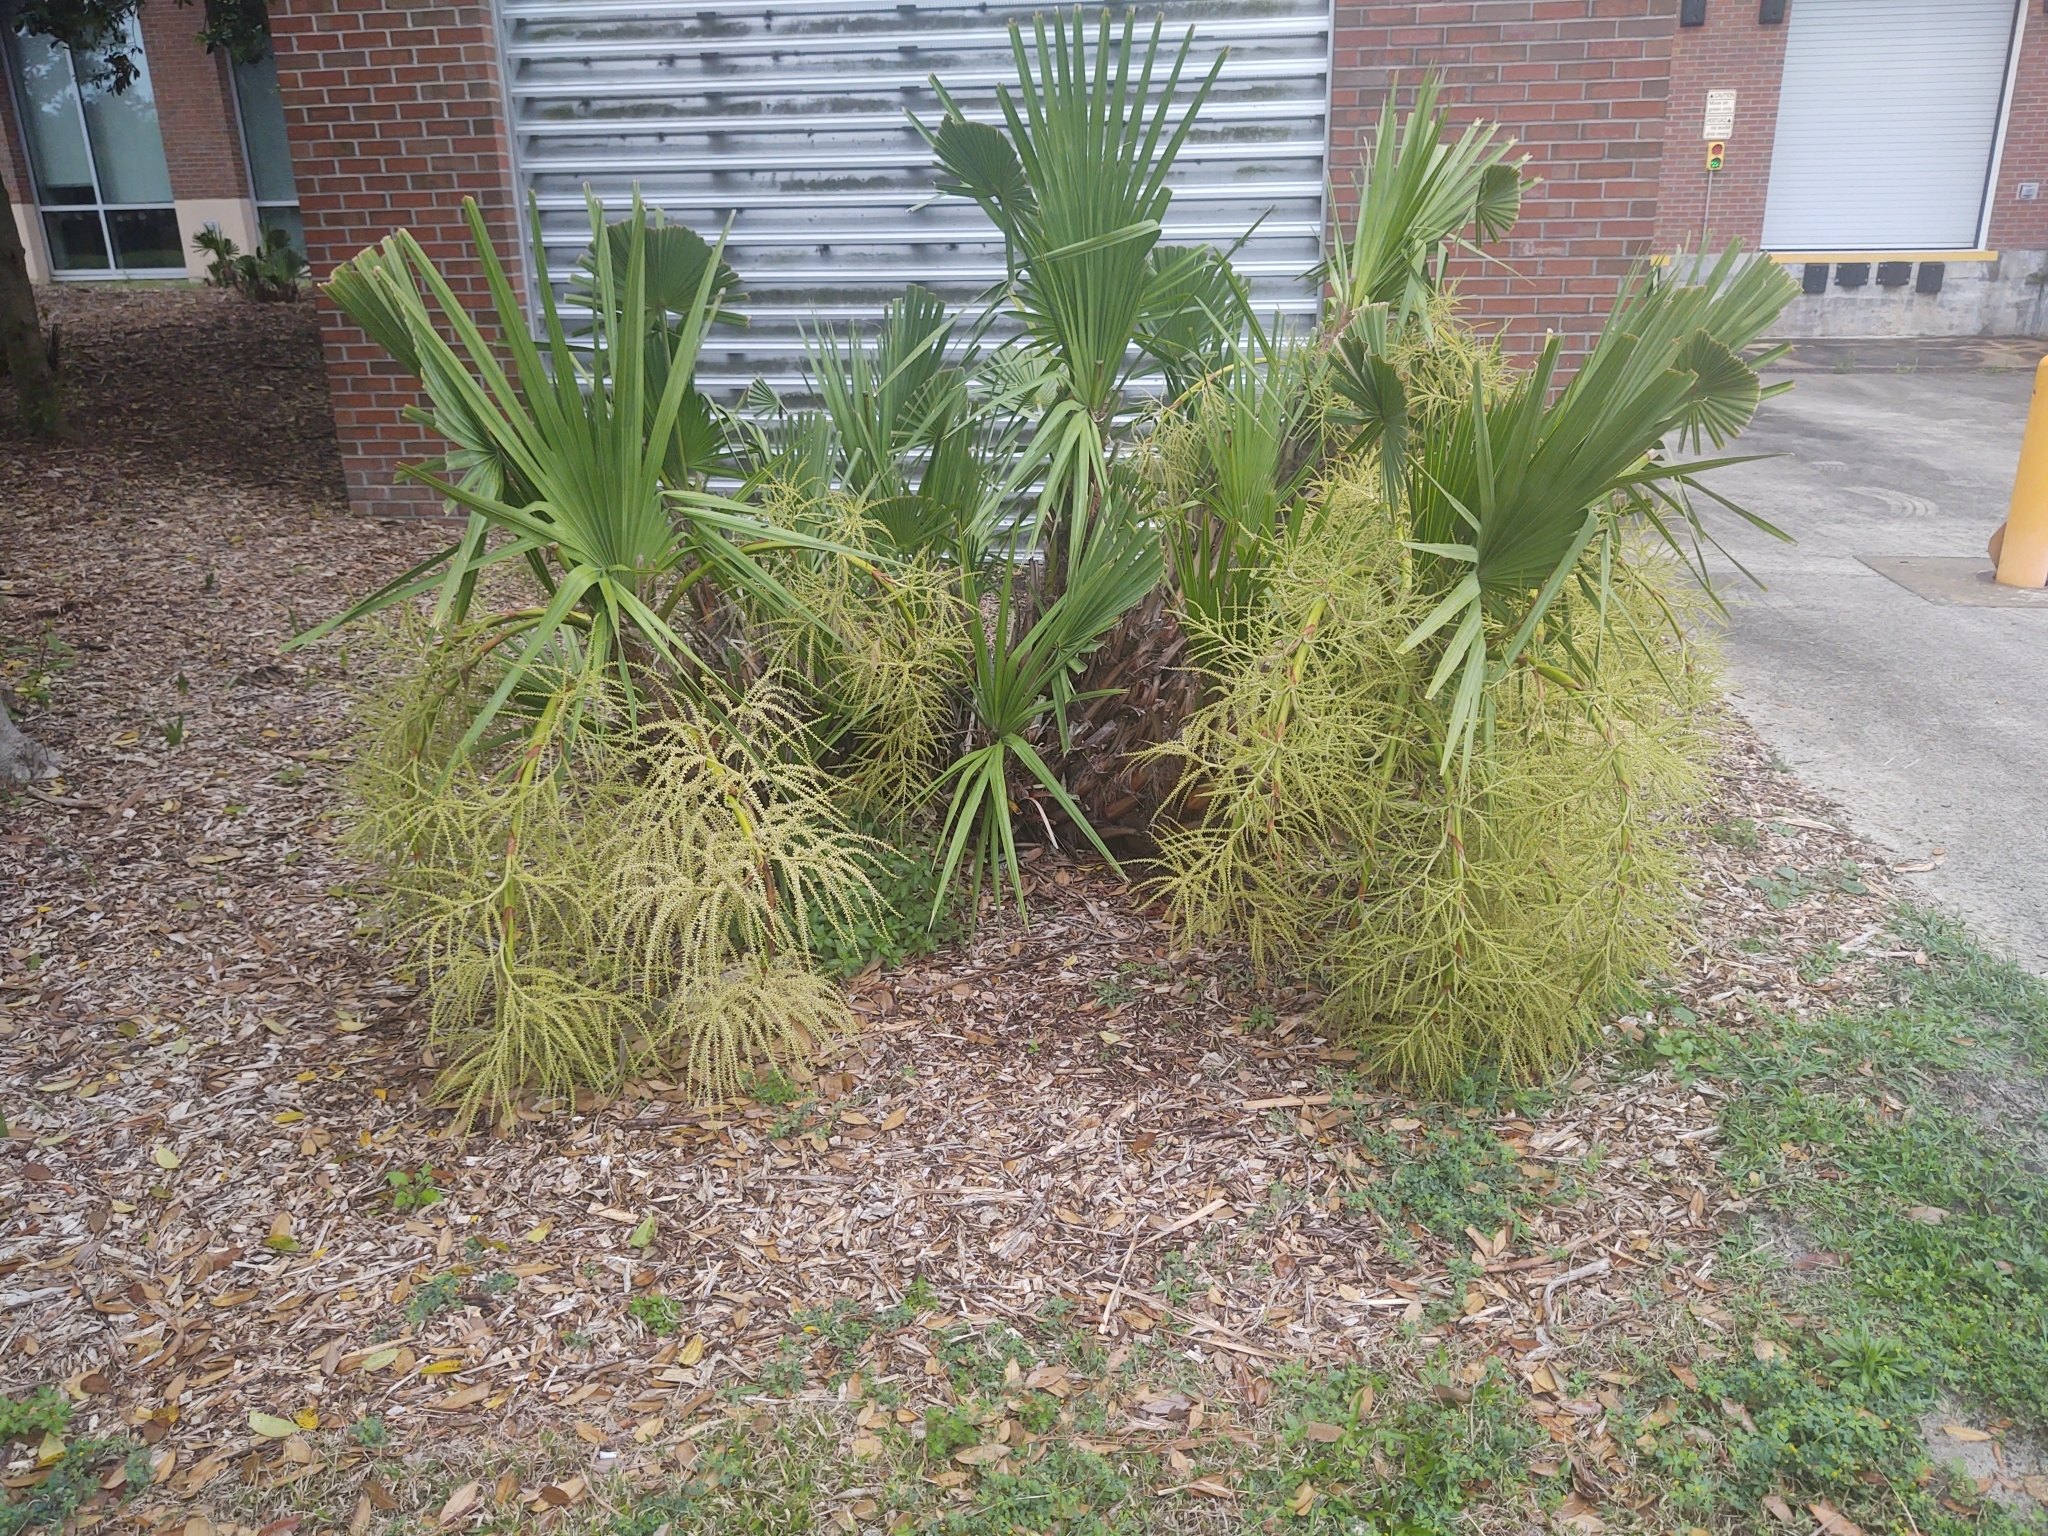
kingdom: Plantae
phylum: Tracheophyta
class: Liliopsida
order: Arecales
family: Arecaceae
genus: Serenoa
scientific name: Serenoa repens
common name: Saw-palmetto
